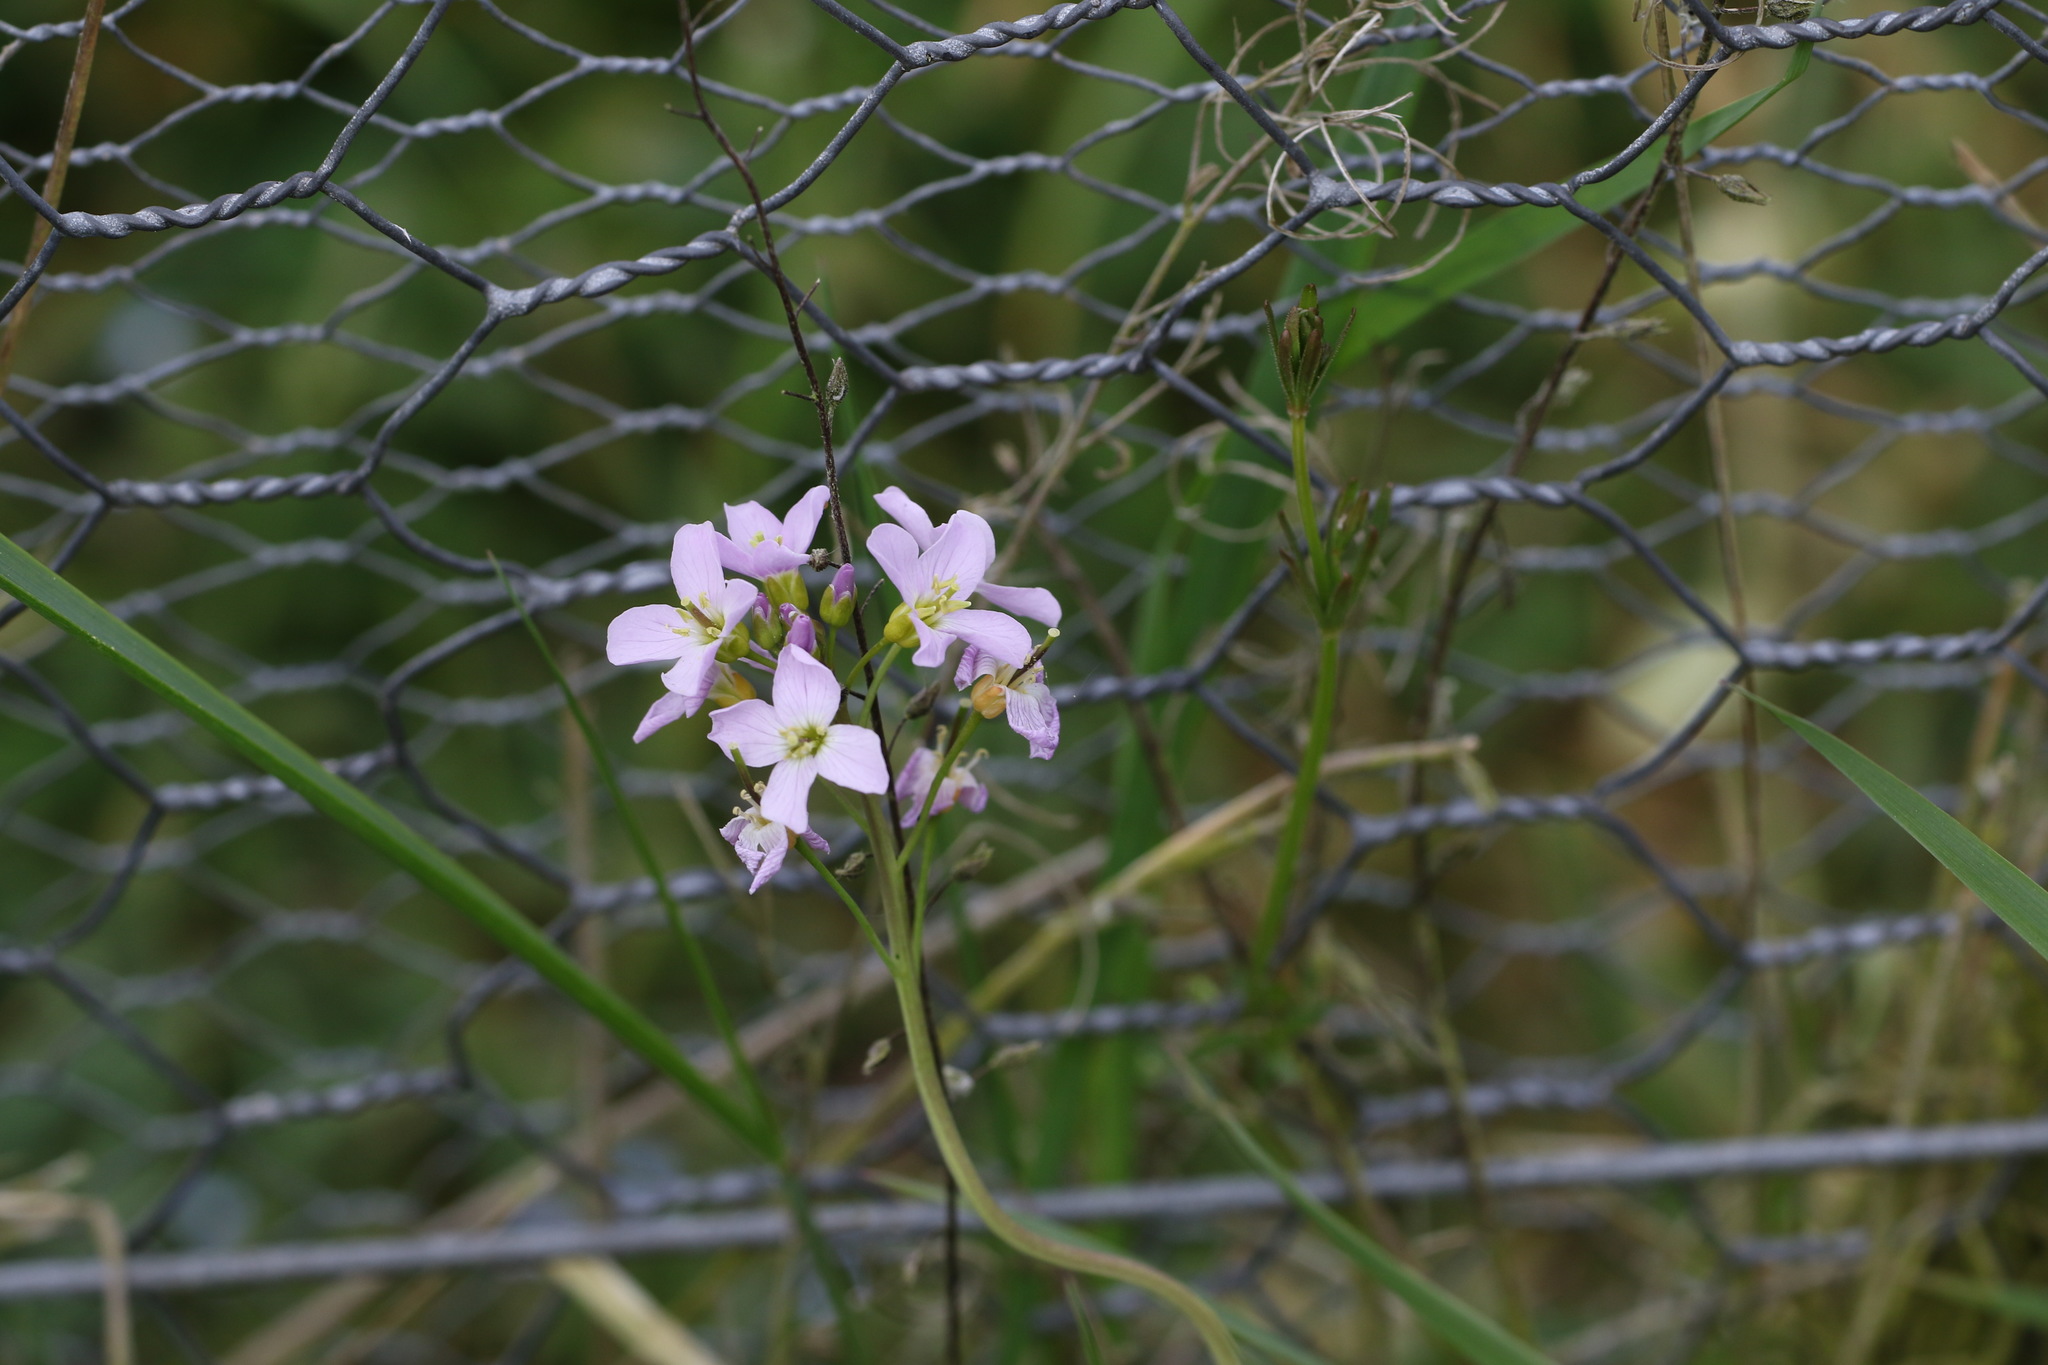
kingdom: Plantae
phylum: Tracheophyta
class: Magnoliopsida
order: Brassicales
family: Brassicaceae
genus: Cardamine
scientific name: Cardamine pratensis
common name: Cuckoo flower
